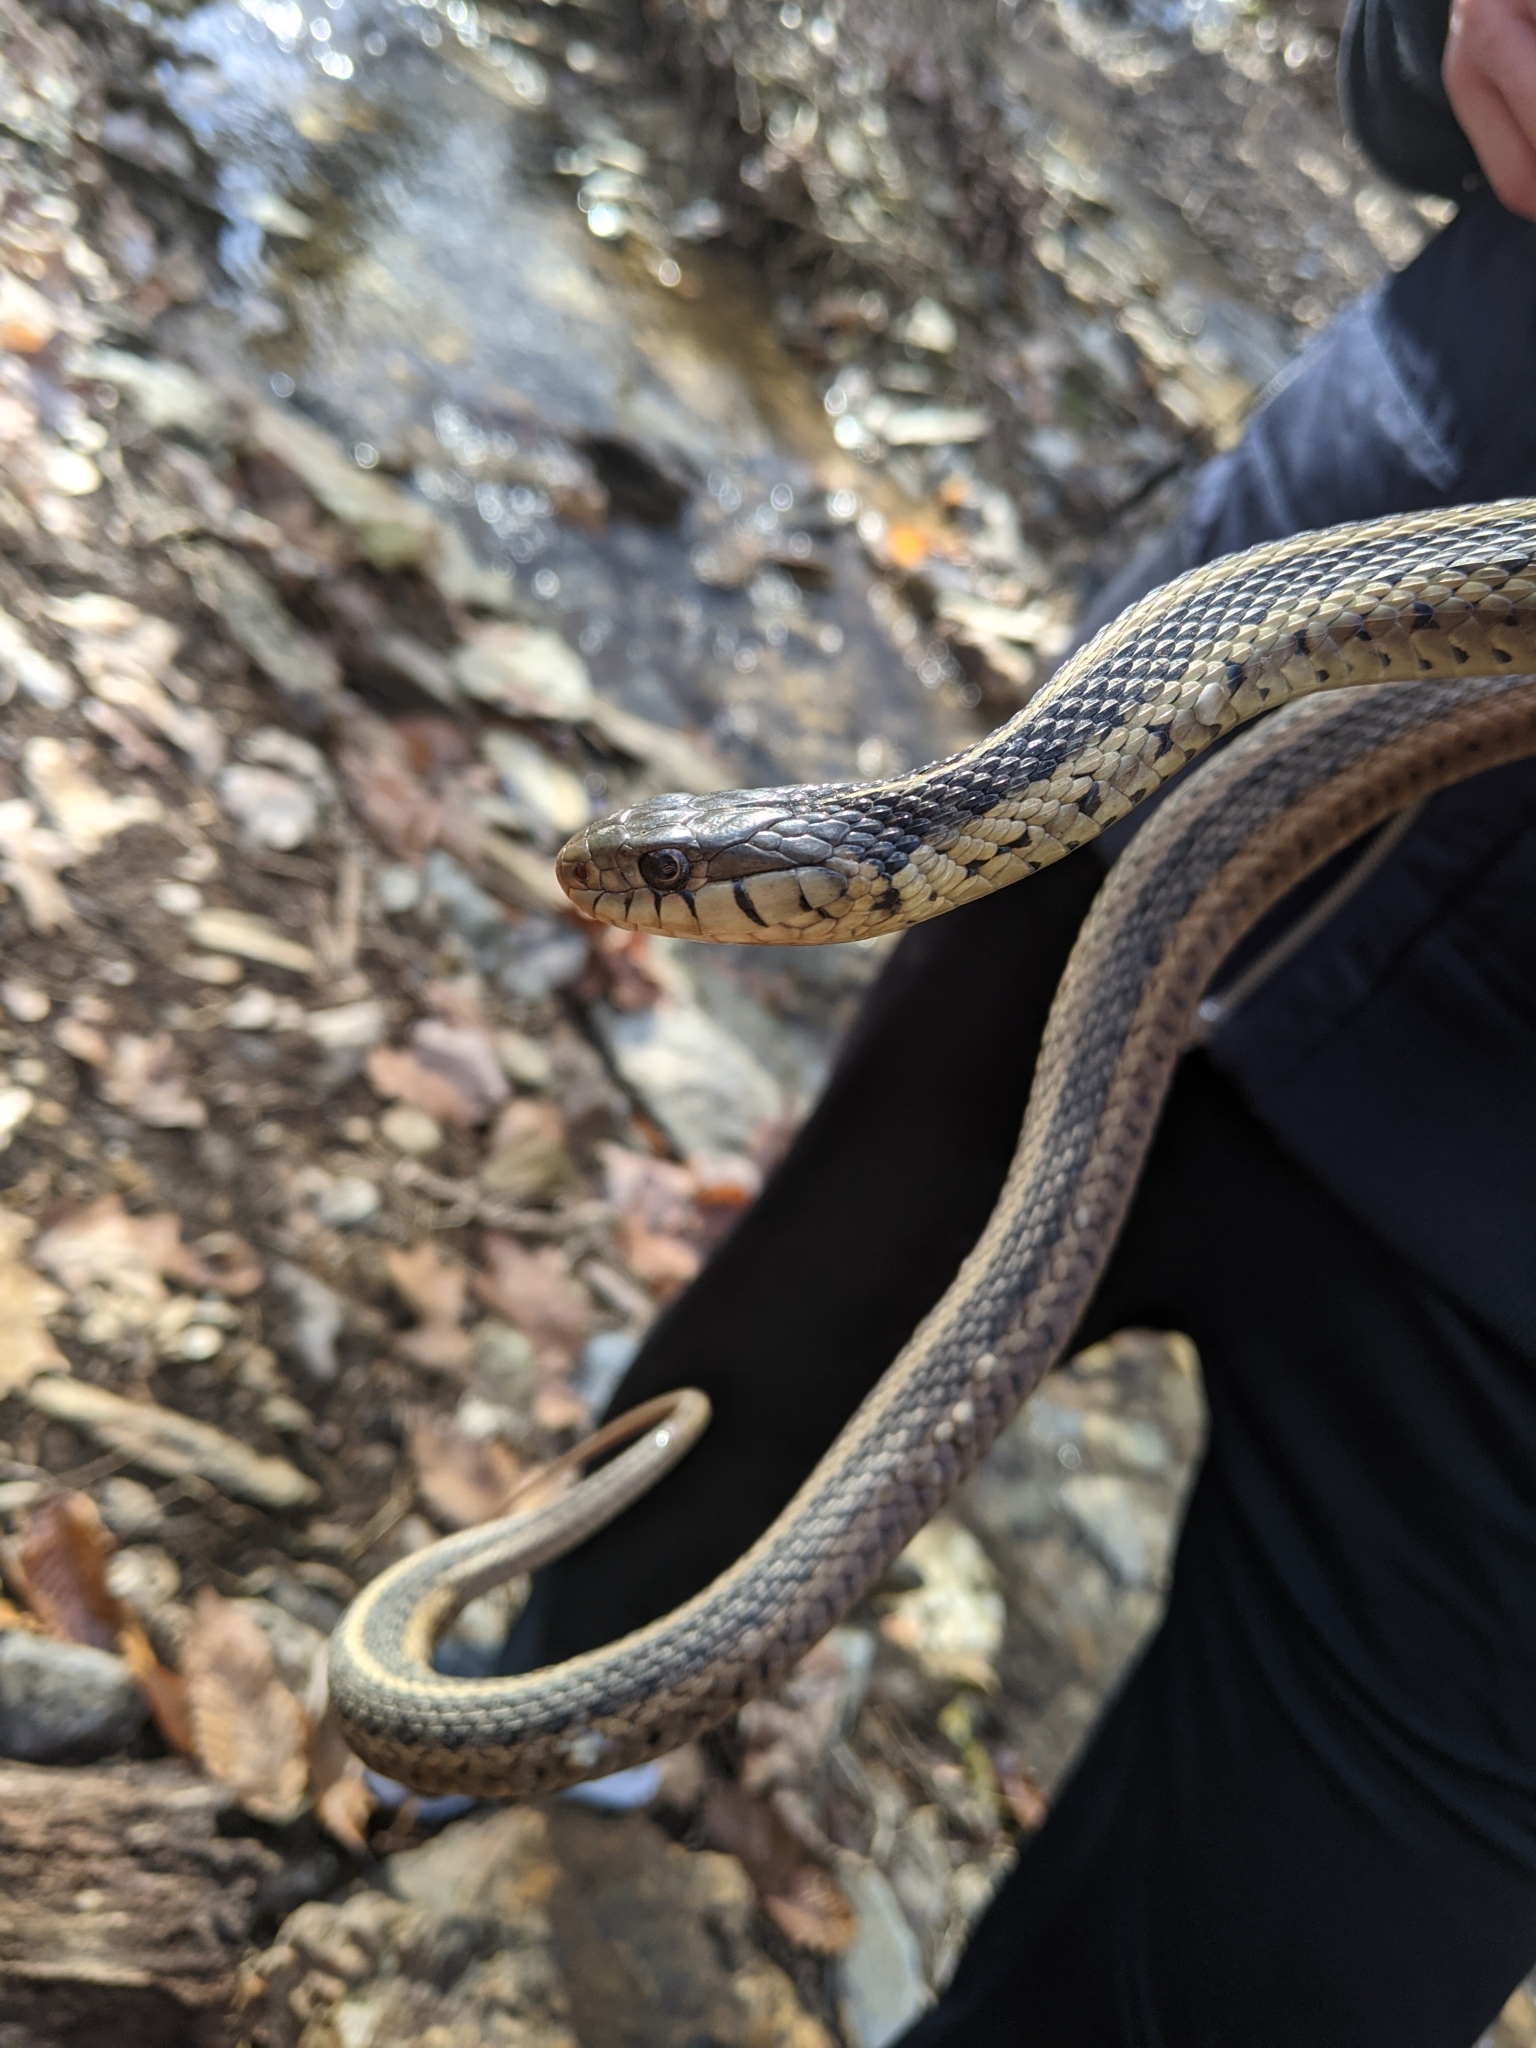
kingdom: Animalia
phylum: Chordata
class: Squamata
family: Colubridae
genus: Thamnophis
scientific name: Thamnophis sirtalis
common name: Common garter snake
